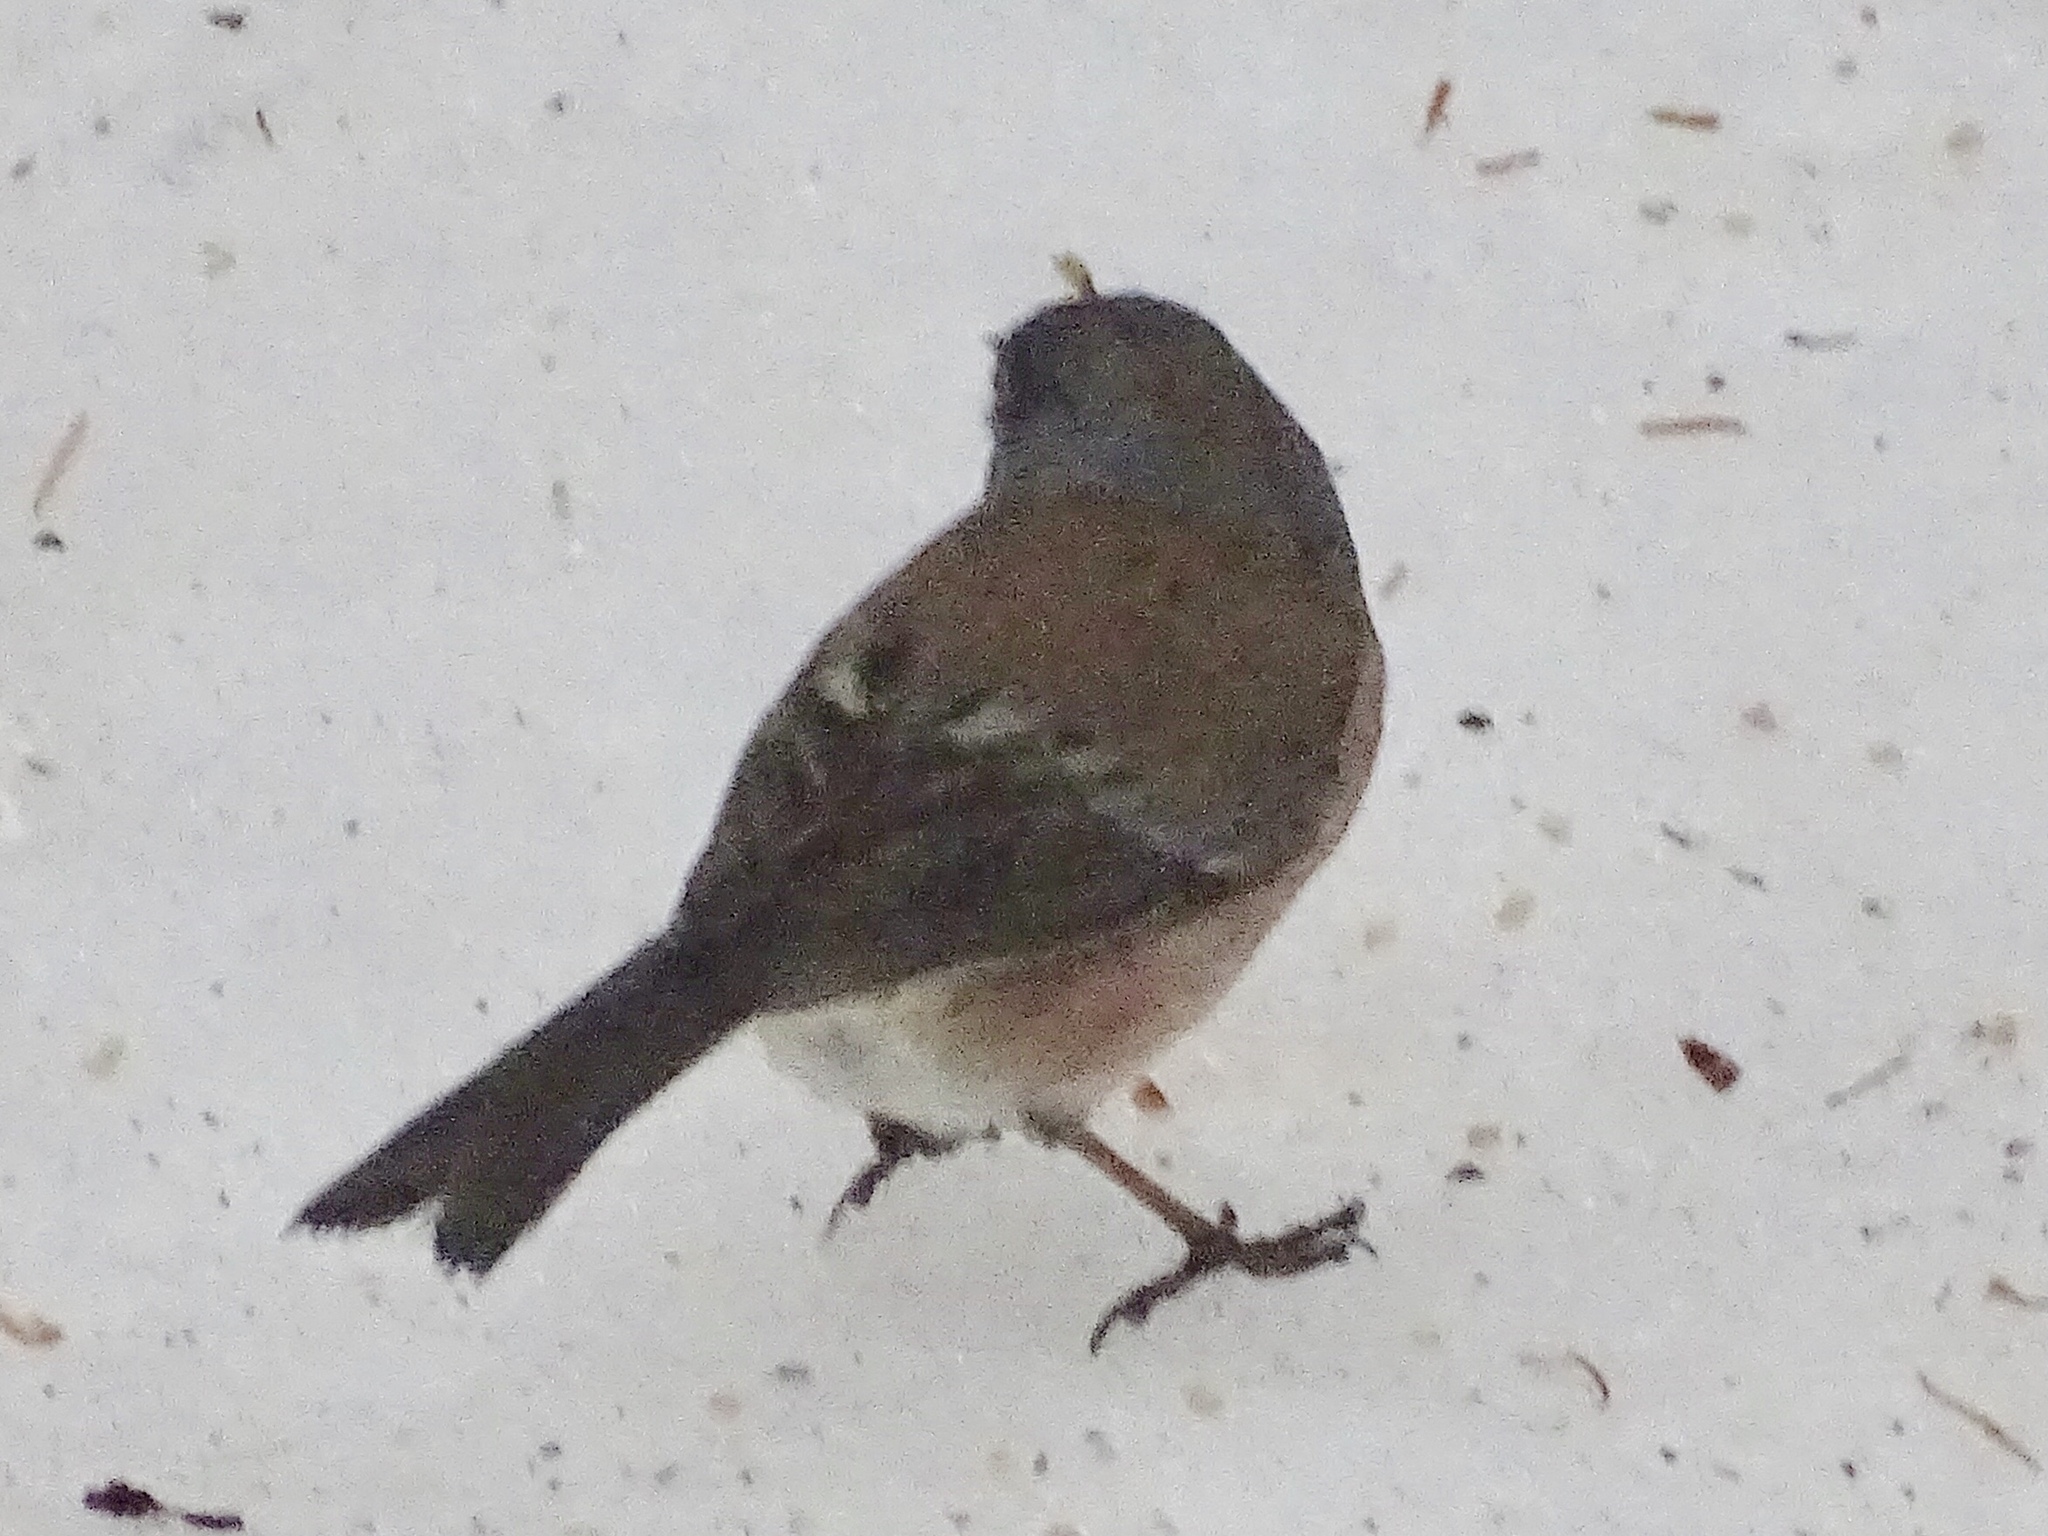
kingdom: Animalia
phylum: Chordata
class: Aves
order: Passeriformes
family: Passerellidae
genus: Junco
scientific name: Junco hyemalis
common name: Dark-eyed junco
